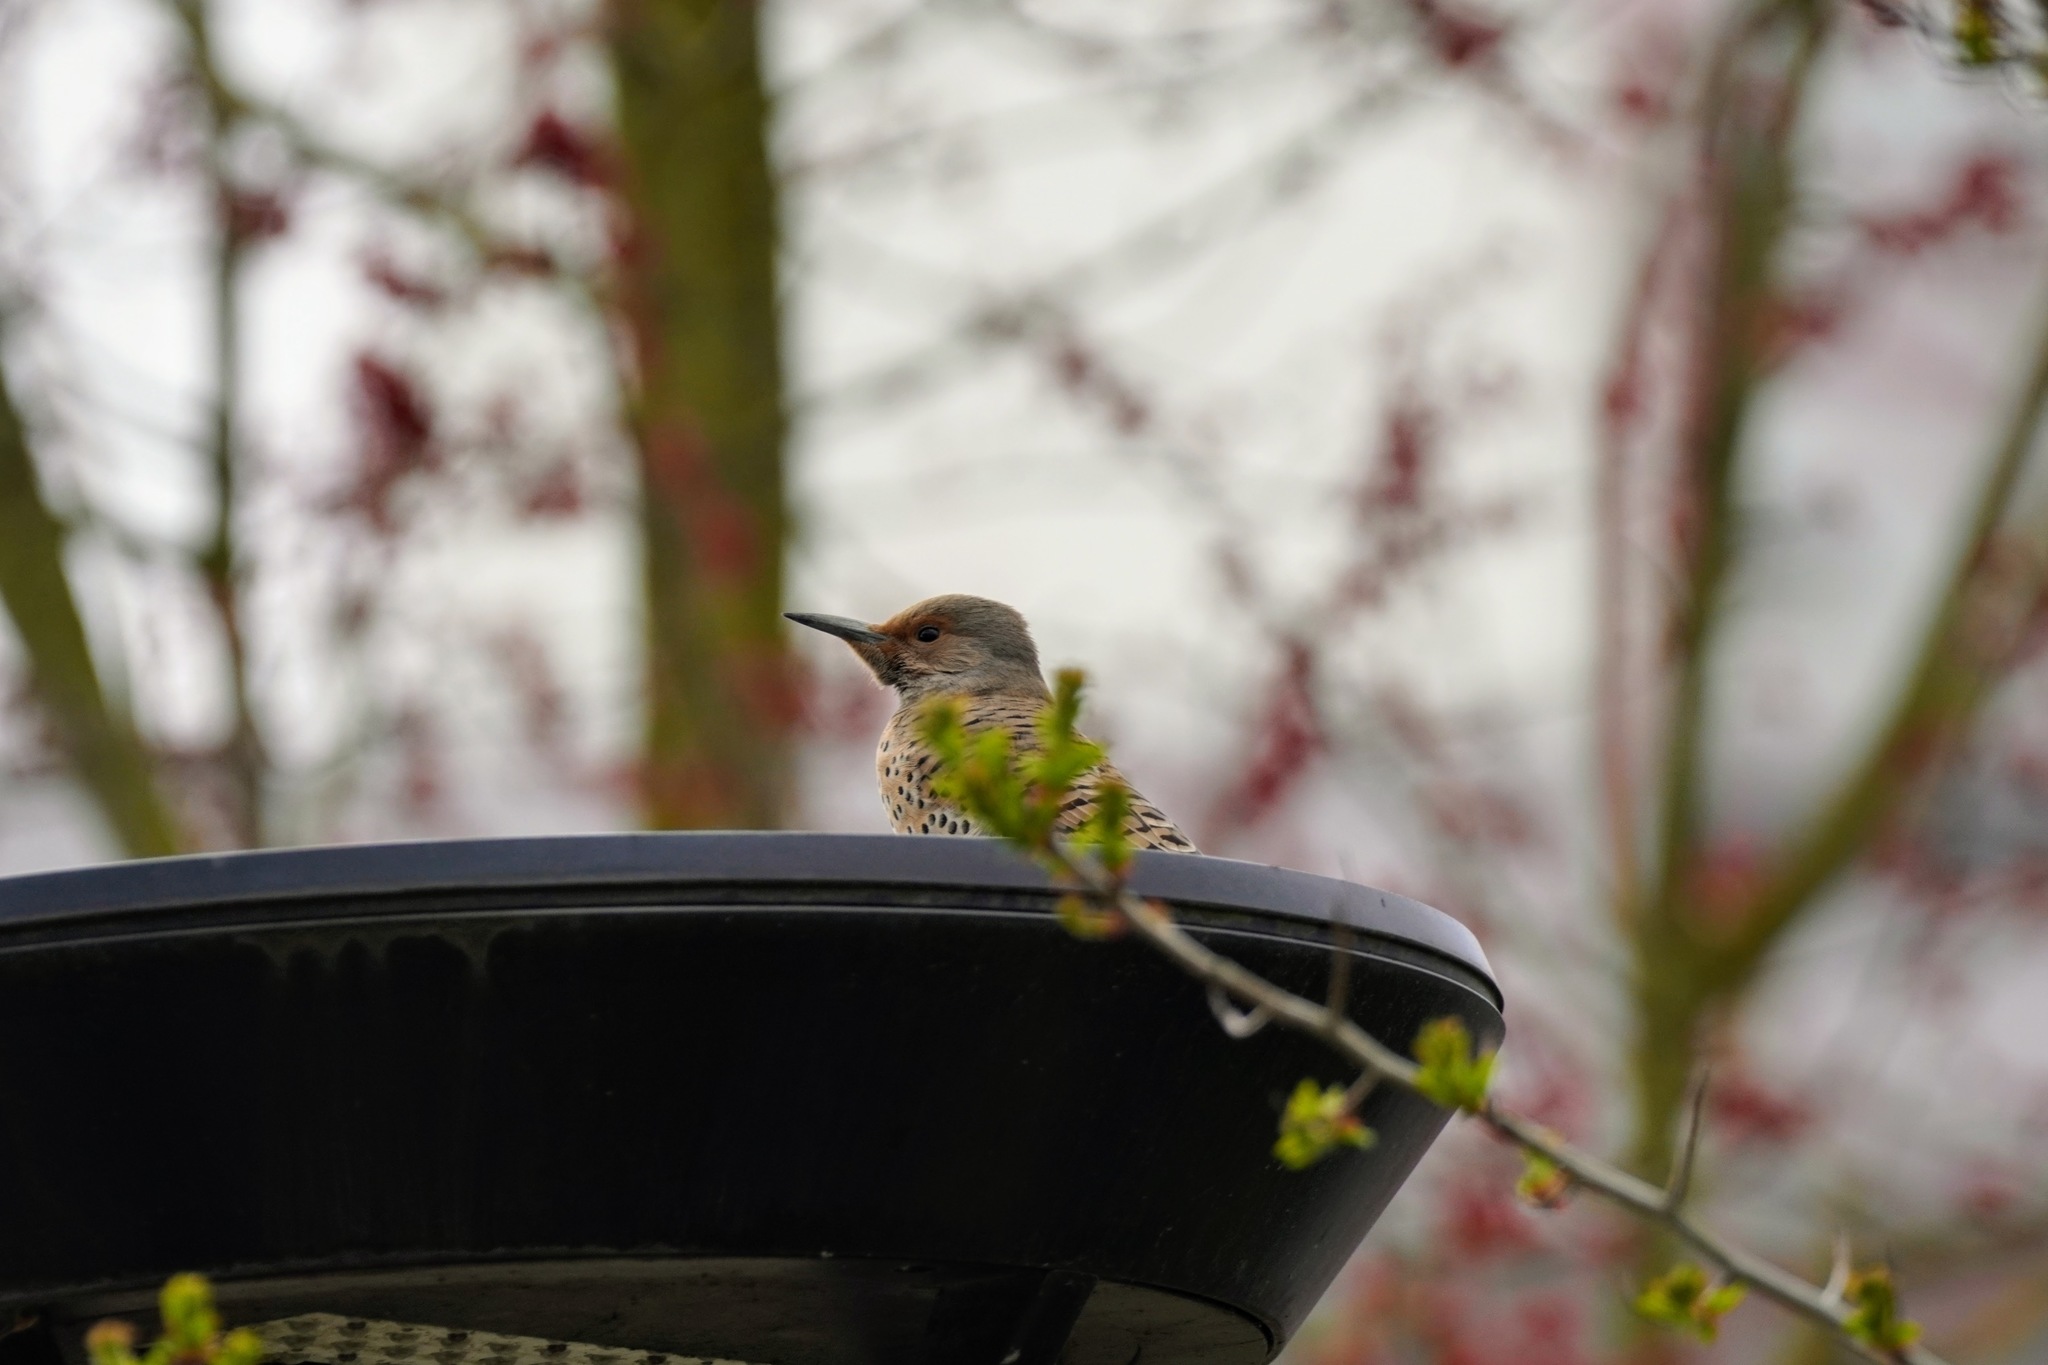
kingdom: Animalia
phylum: Chordata
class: Aves
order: Piciformes
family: Picidae
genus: Colaptes
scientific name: Colaptes auratus
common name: Northern flicker
